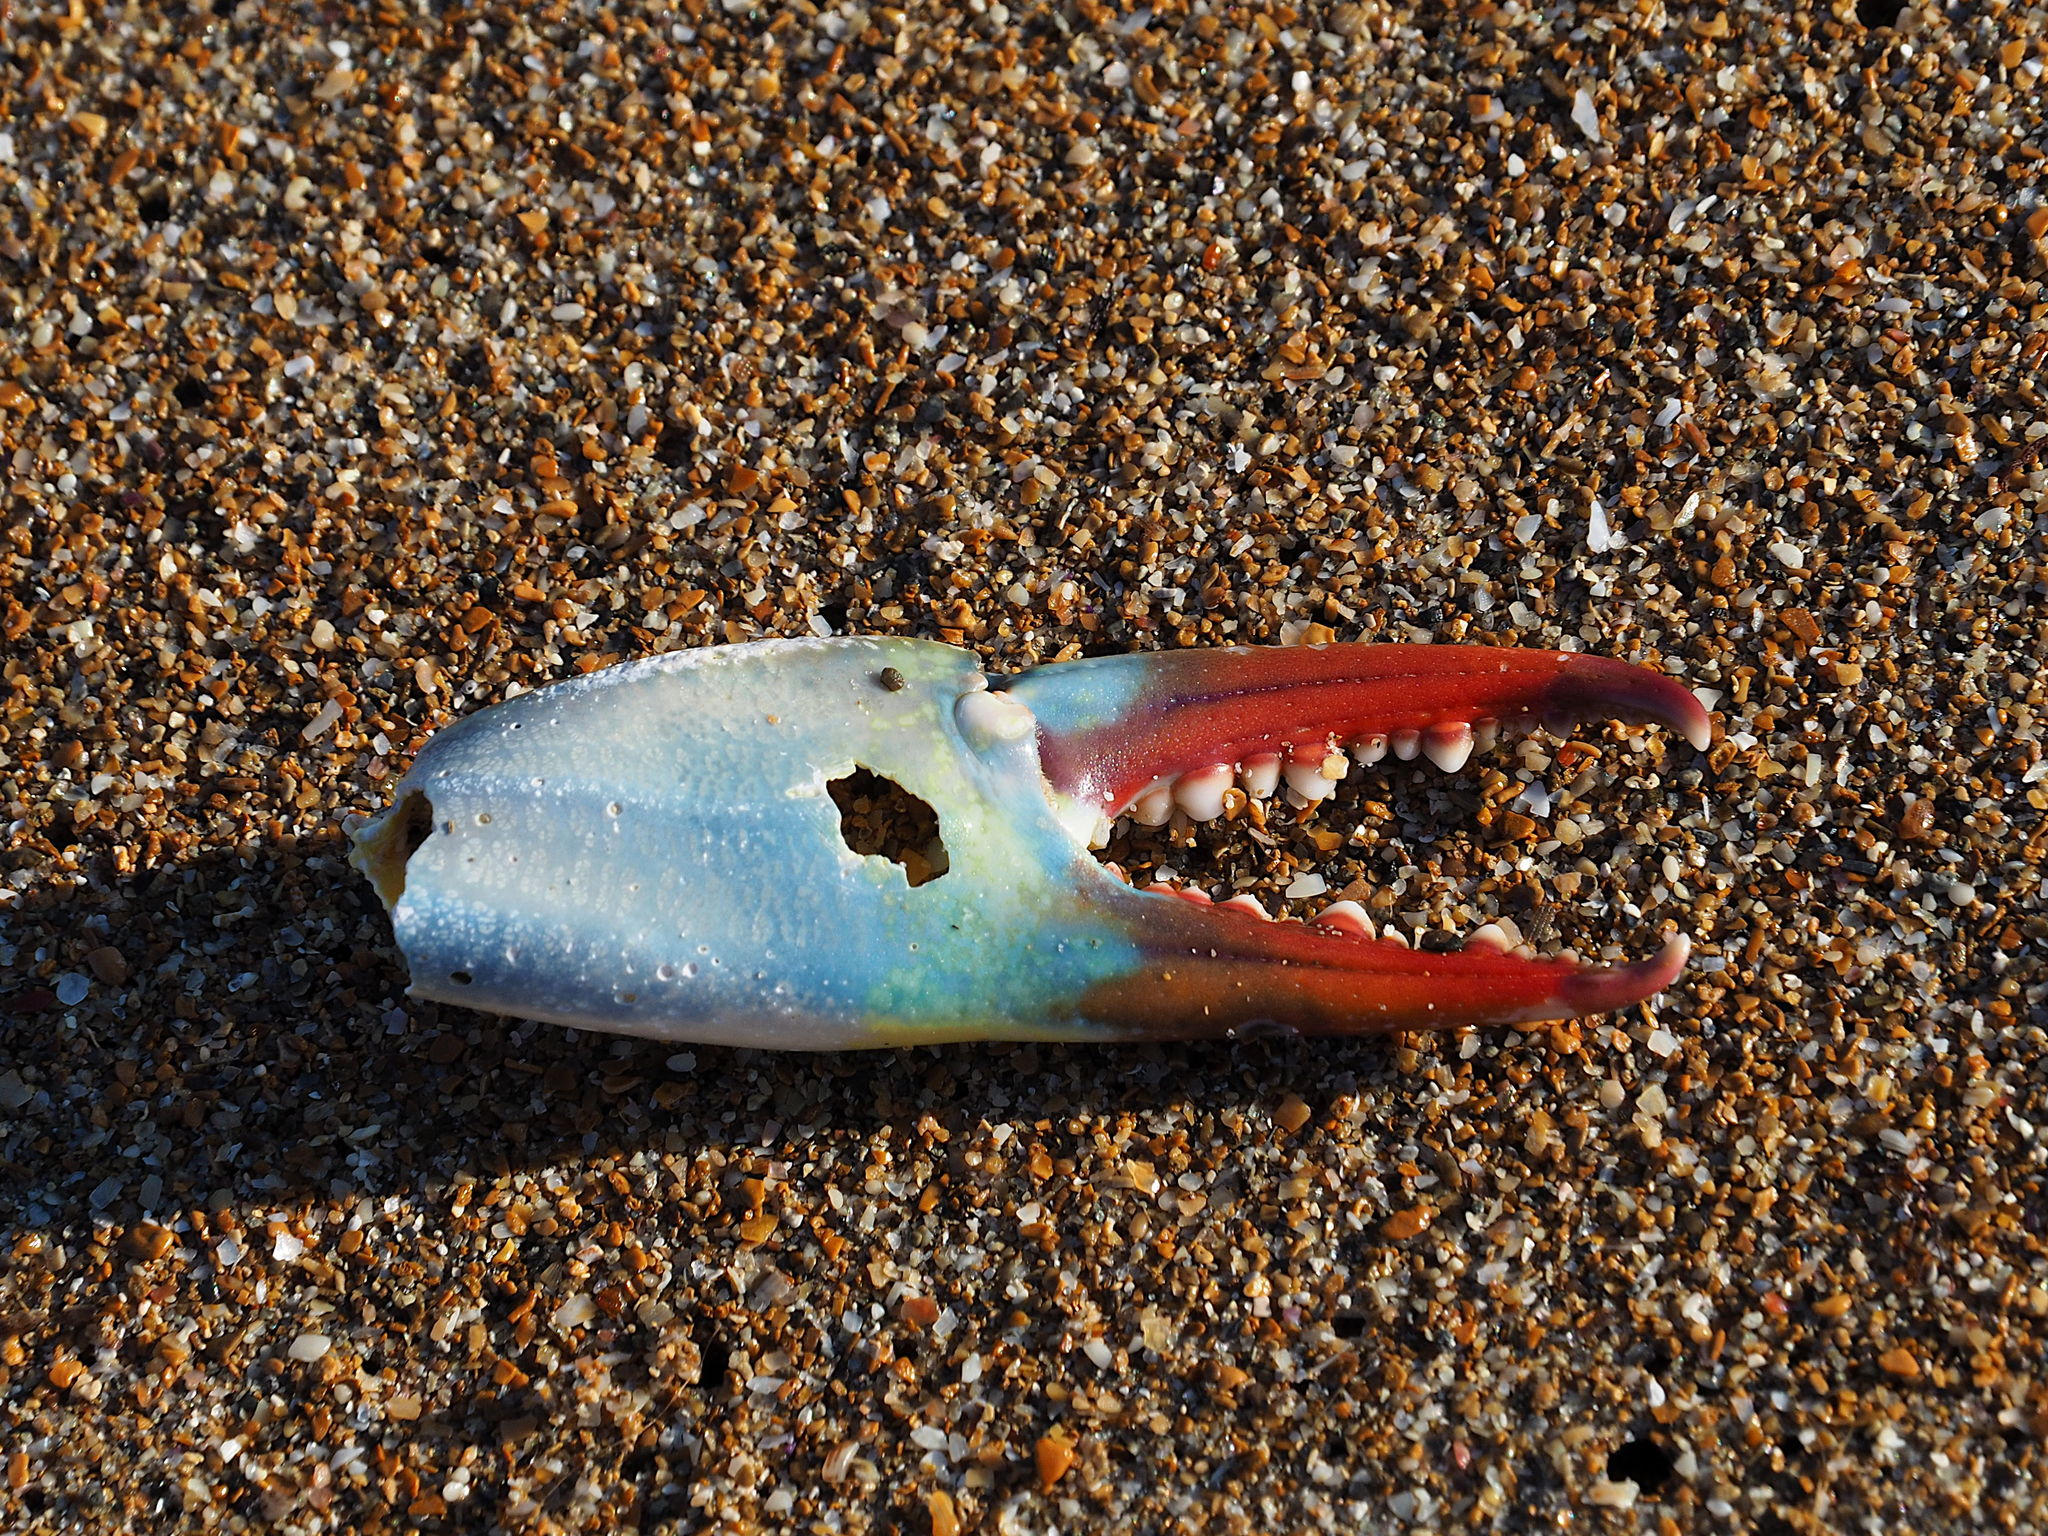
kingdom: Animalia
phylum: Arthropoda
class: Malacostraca
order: Decapoda
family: Portunidae
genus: Callinectes
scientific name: Callinectes sapidus
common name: Blue crab
